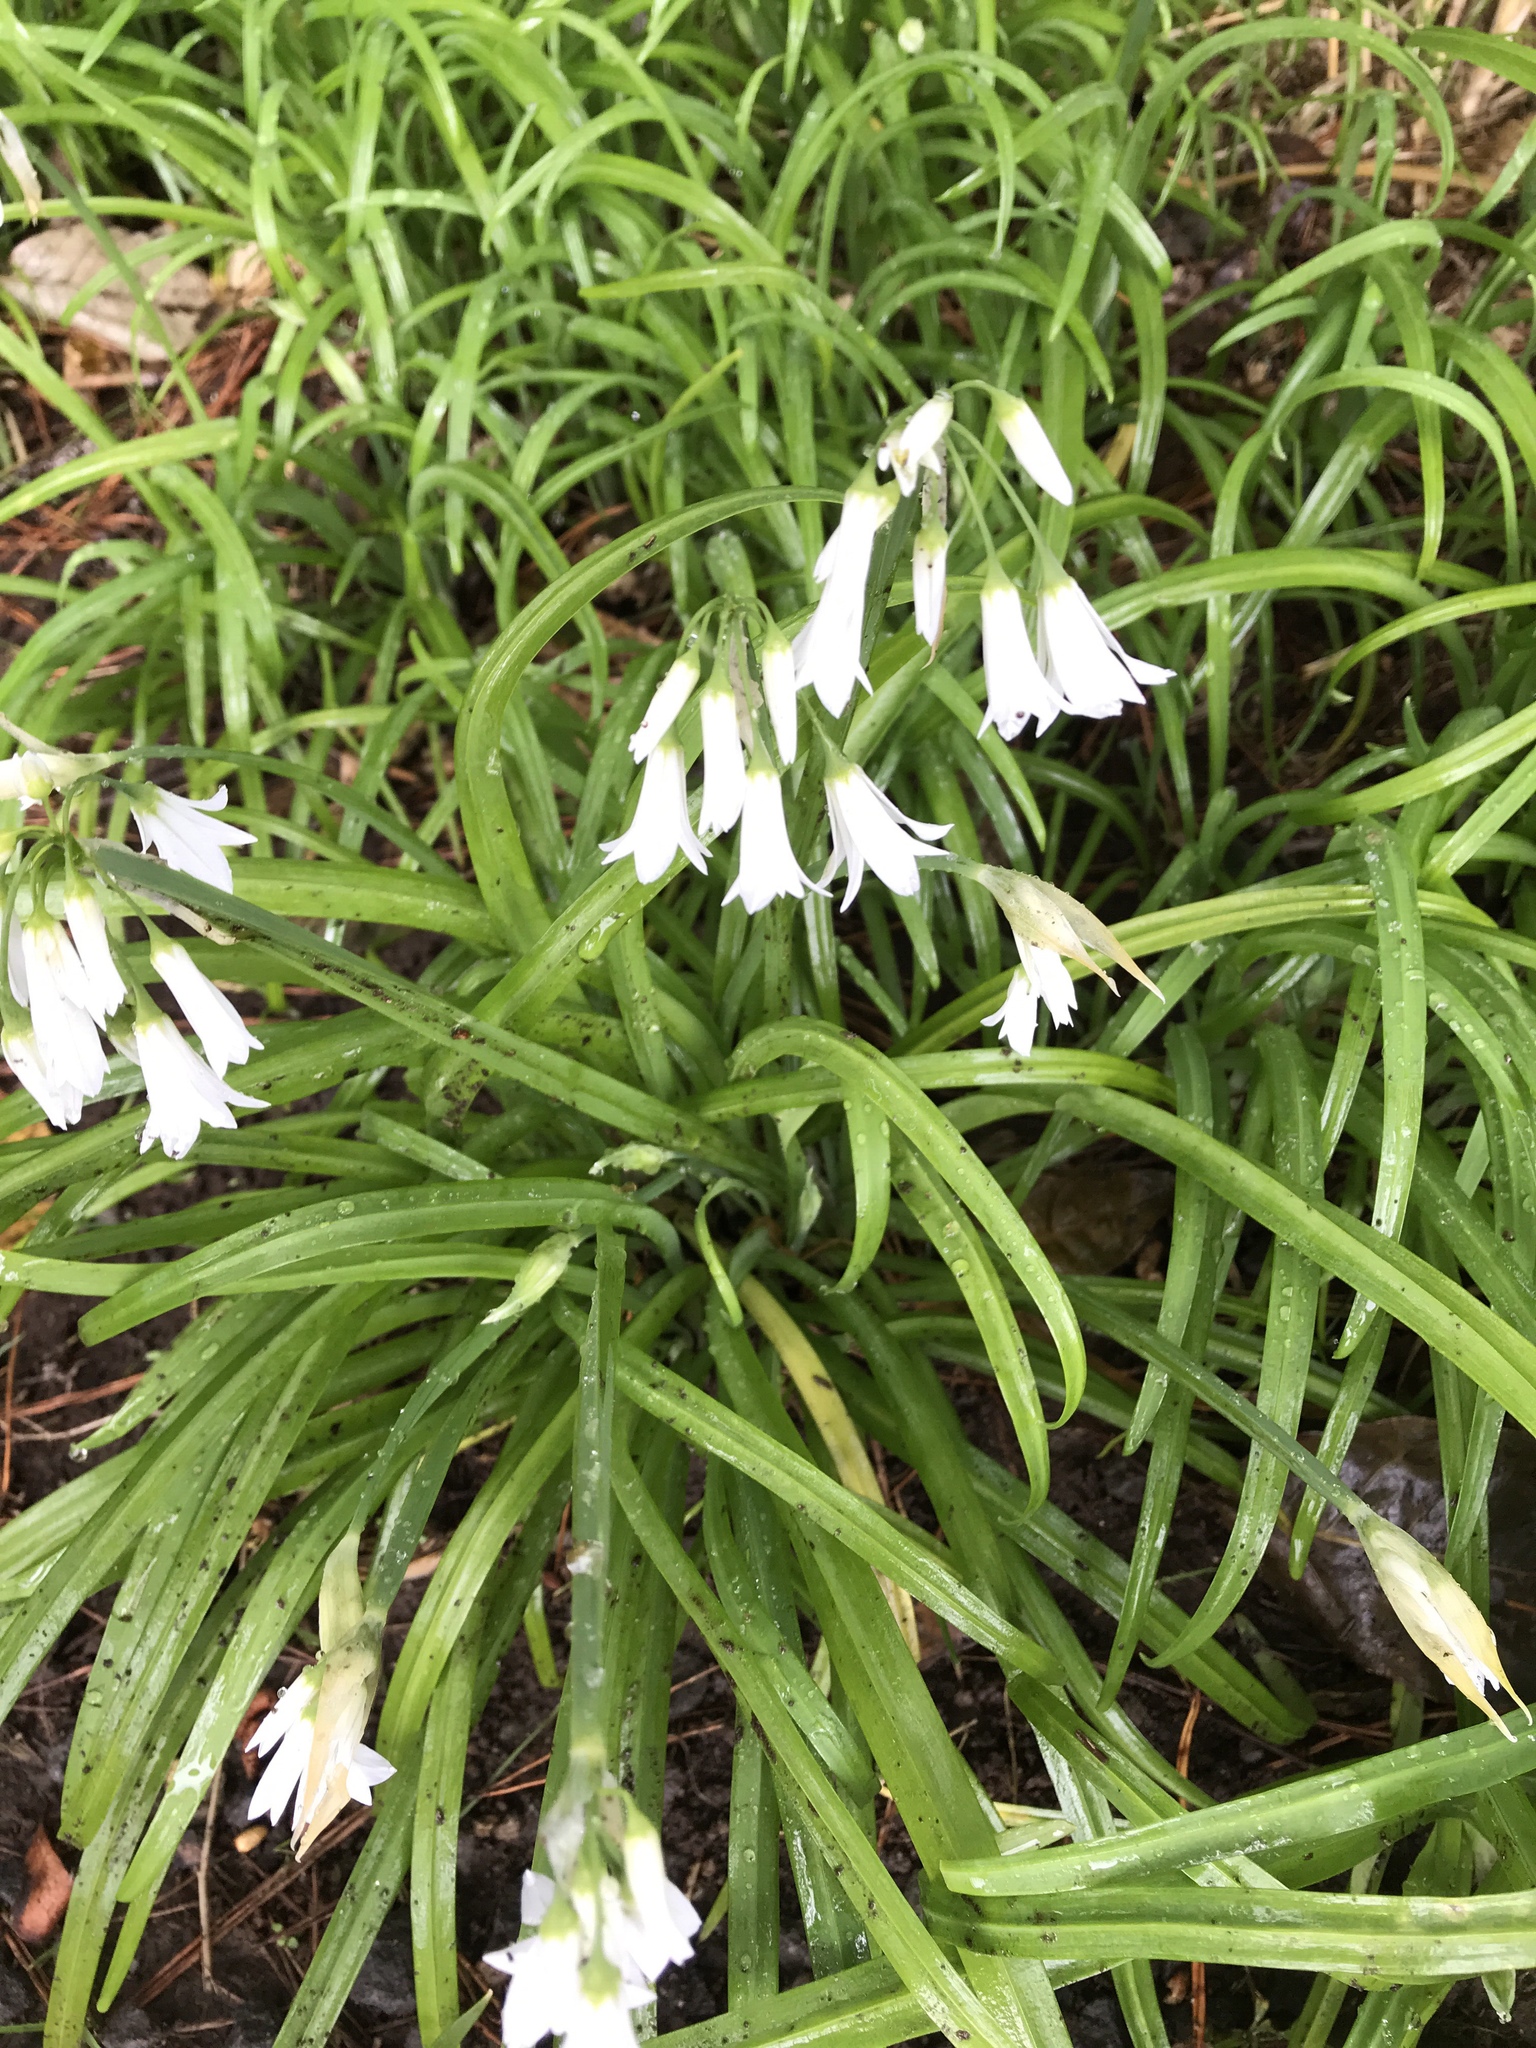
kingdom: Plantae
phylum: Tracheophyta
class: Liliopsida
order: Asparagales
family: Amaryllidaceae
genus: Allium
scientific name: Allium triquetrum
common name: Three-cornered garlic
